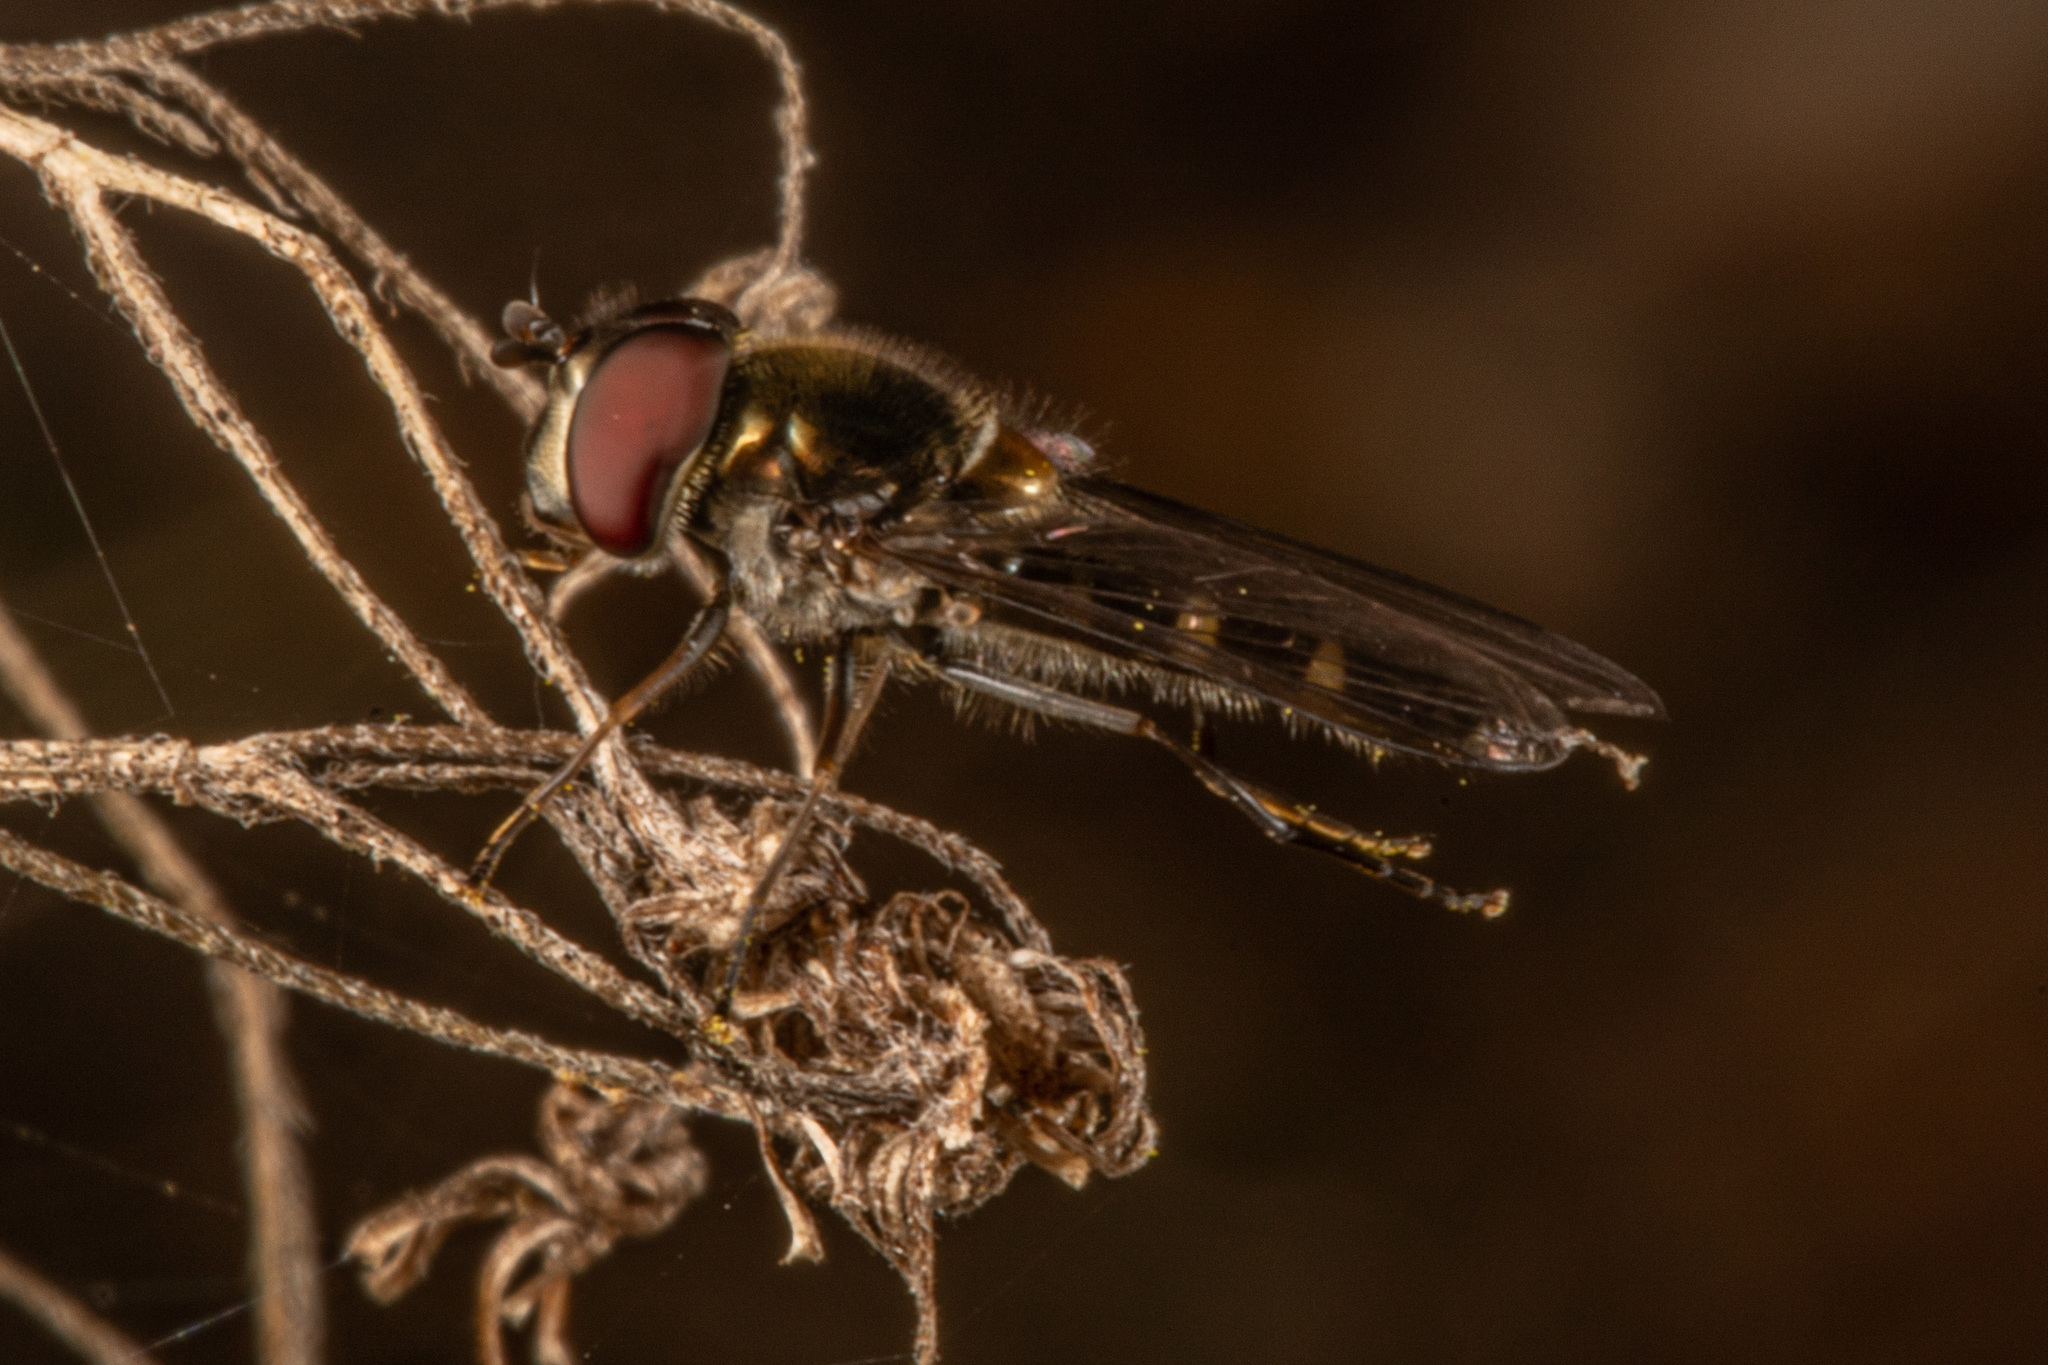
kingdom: Animalia
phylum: Arthropoda
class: Insecta
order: Diptera
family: Syrphidae
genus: Melangyna
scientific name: Melangyna novaezelandiae
